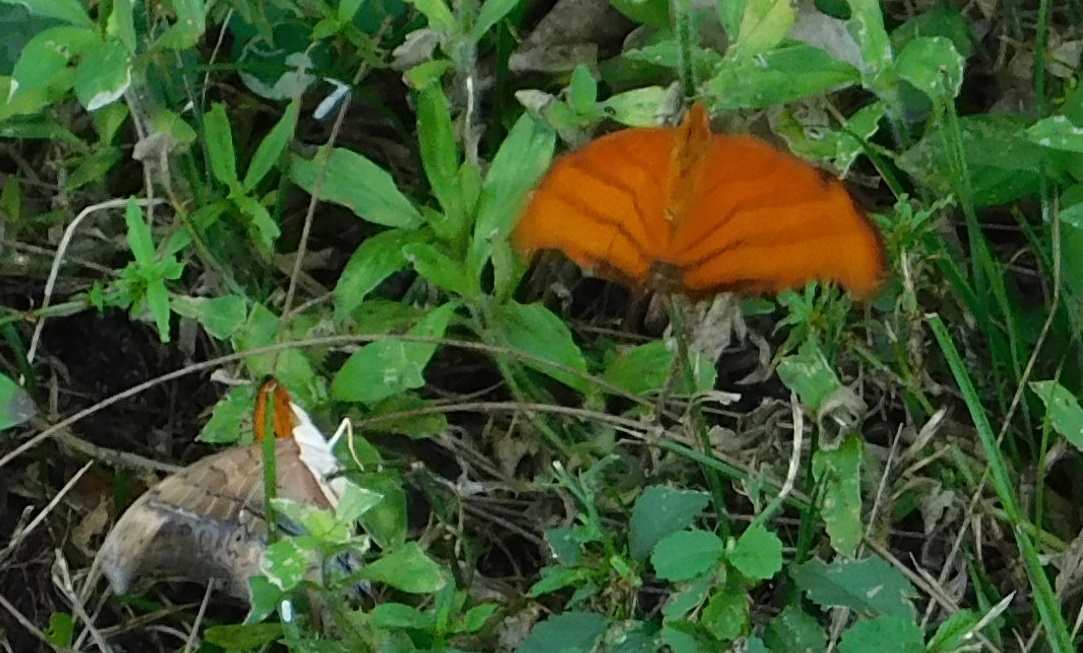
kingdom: Animalia
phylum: Arthropoda
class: Insecta
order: Lepidoptera
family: Nymphalidae
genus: Marpesia
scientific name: Marpesia petreus
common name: Red dagger wing
